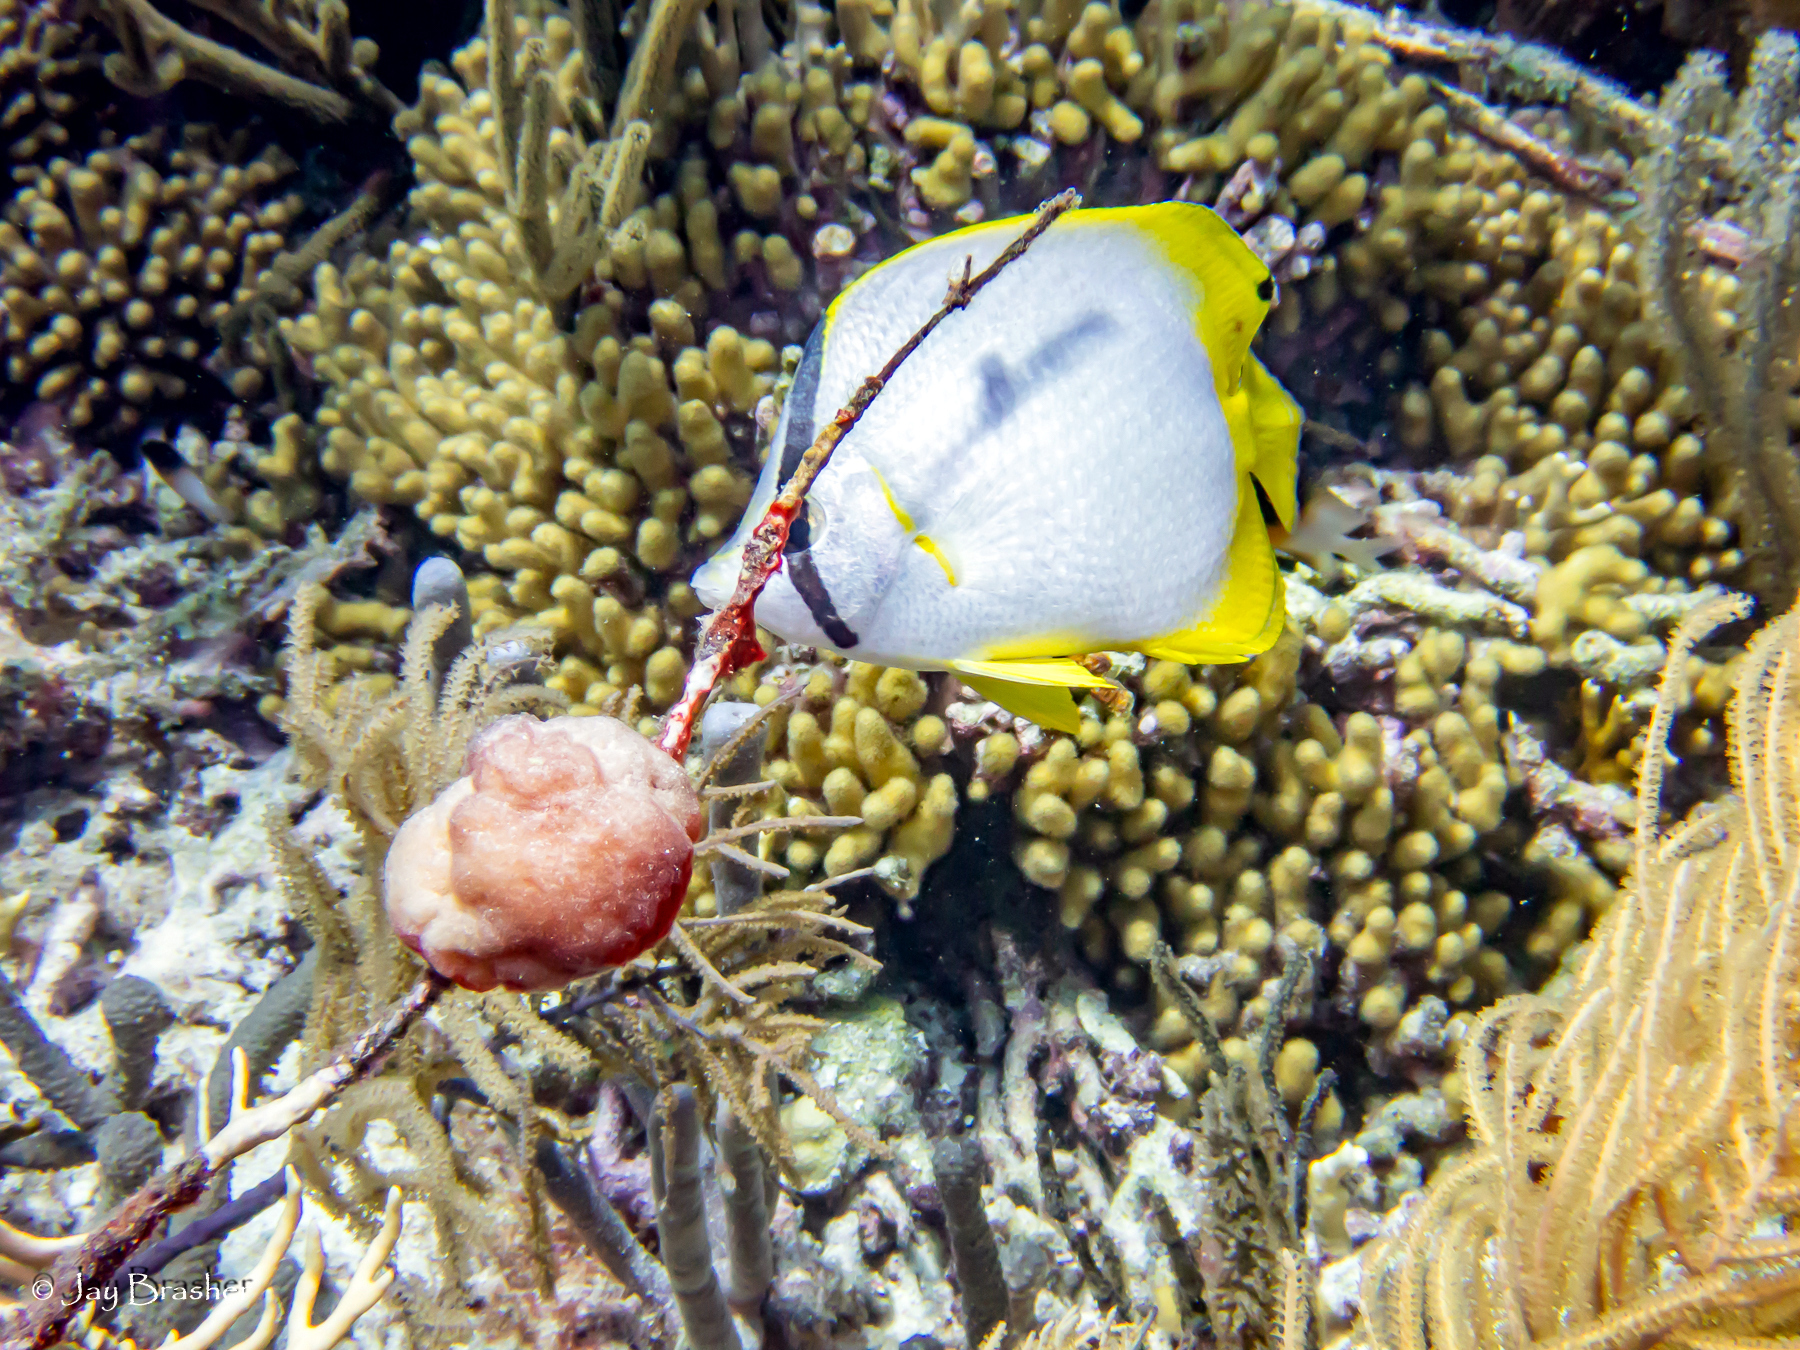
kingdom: Animalia
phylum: Cnidaria
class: Anthozoa
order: Scleractinia
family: Pocilloporidae
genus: Madracis
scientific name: Madracis auretenra
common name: Yellow pencil coral
